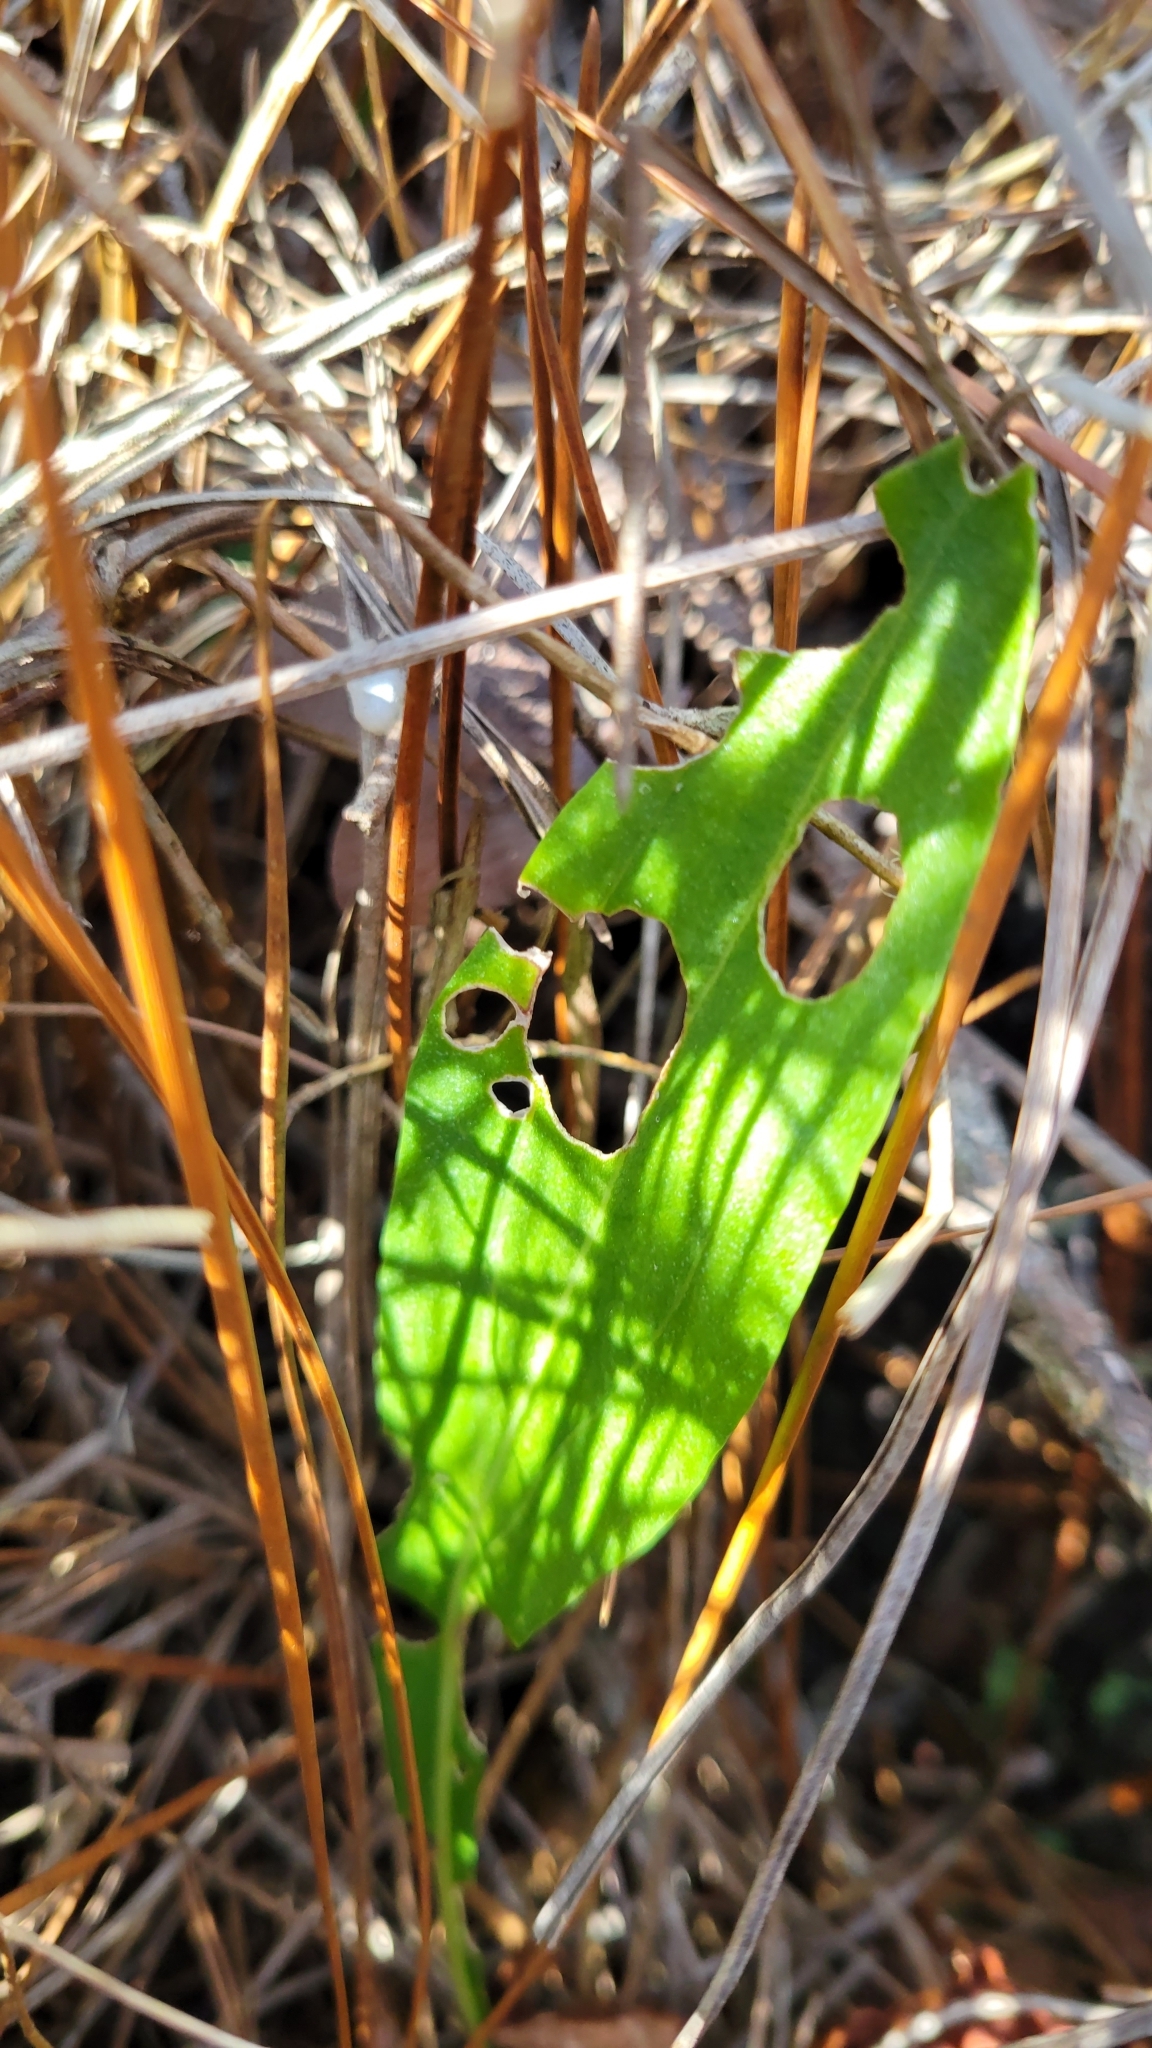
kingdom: Plantae
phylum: Tracheophyta
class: Magnoliopsida
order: Asterales
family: Asteraceae
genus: Carphephorus
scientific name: Carphephorus odoratissimus
